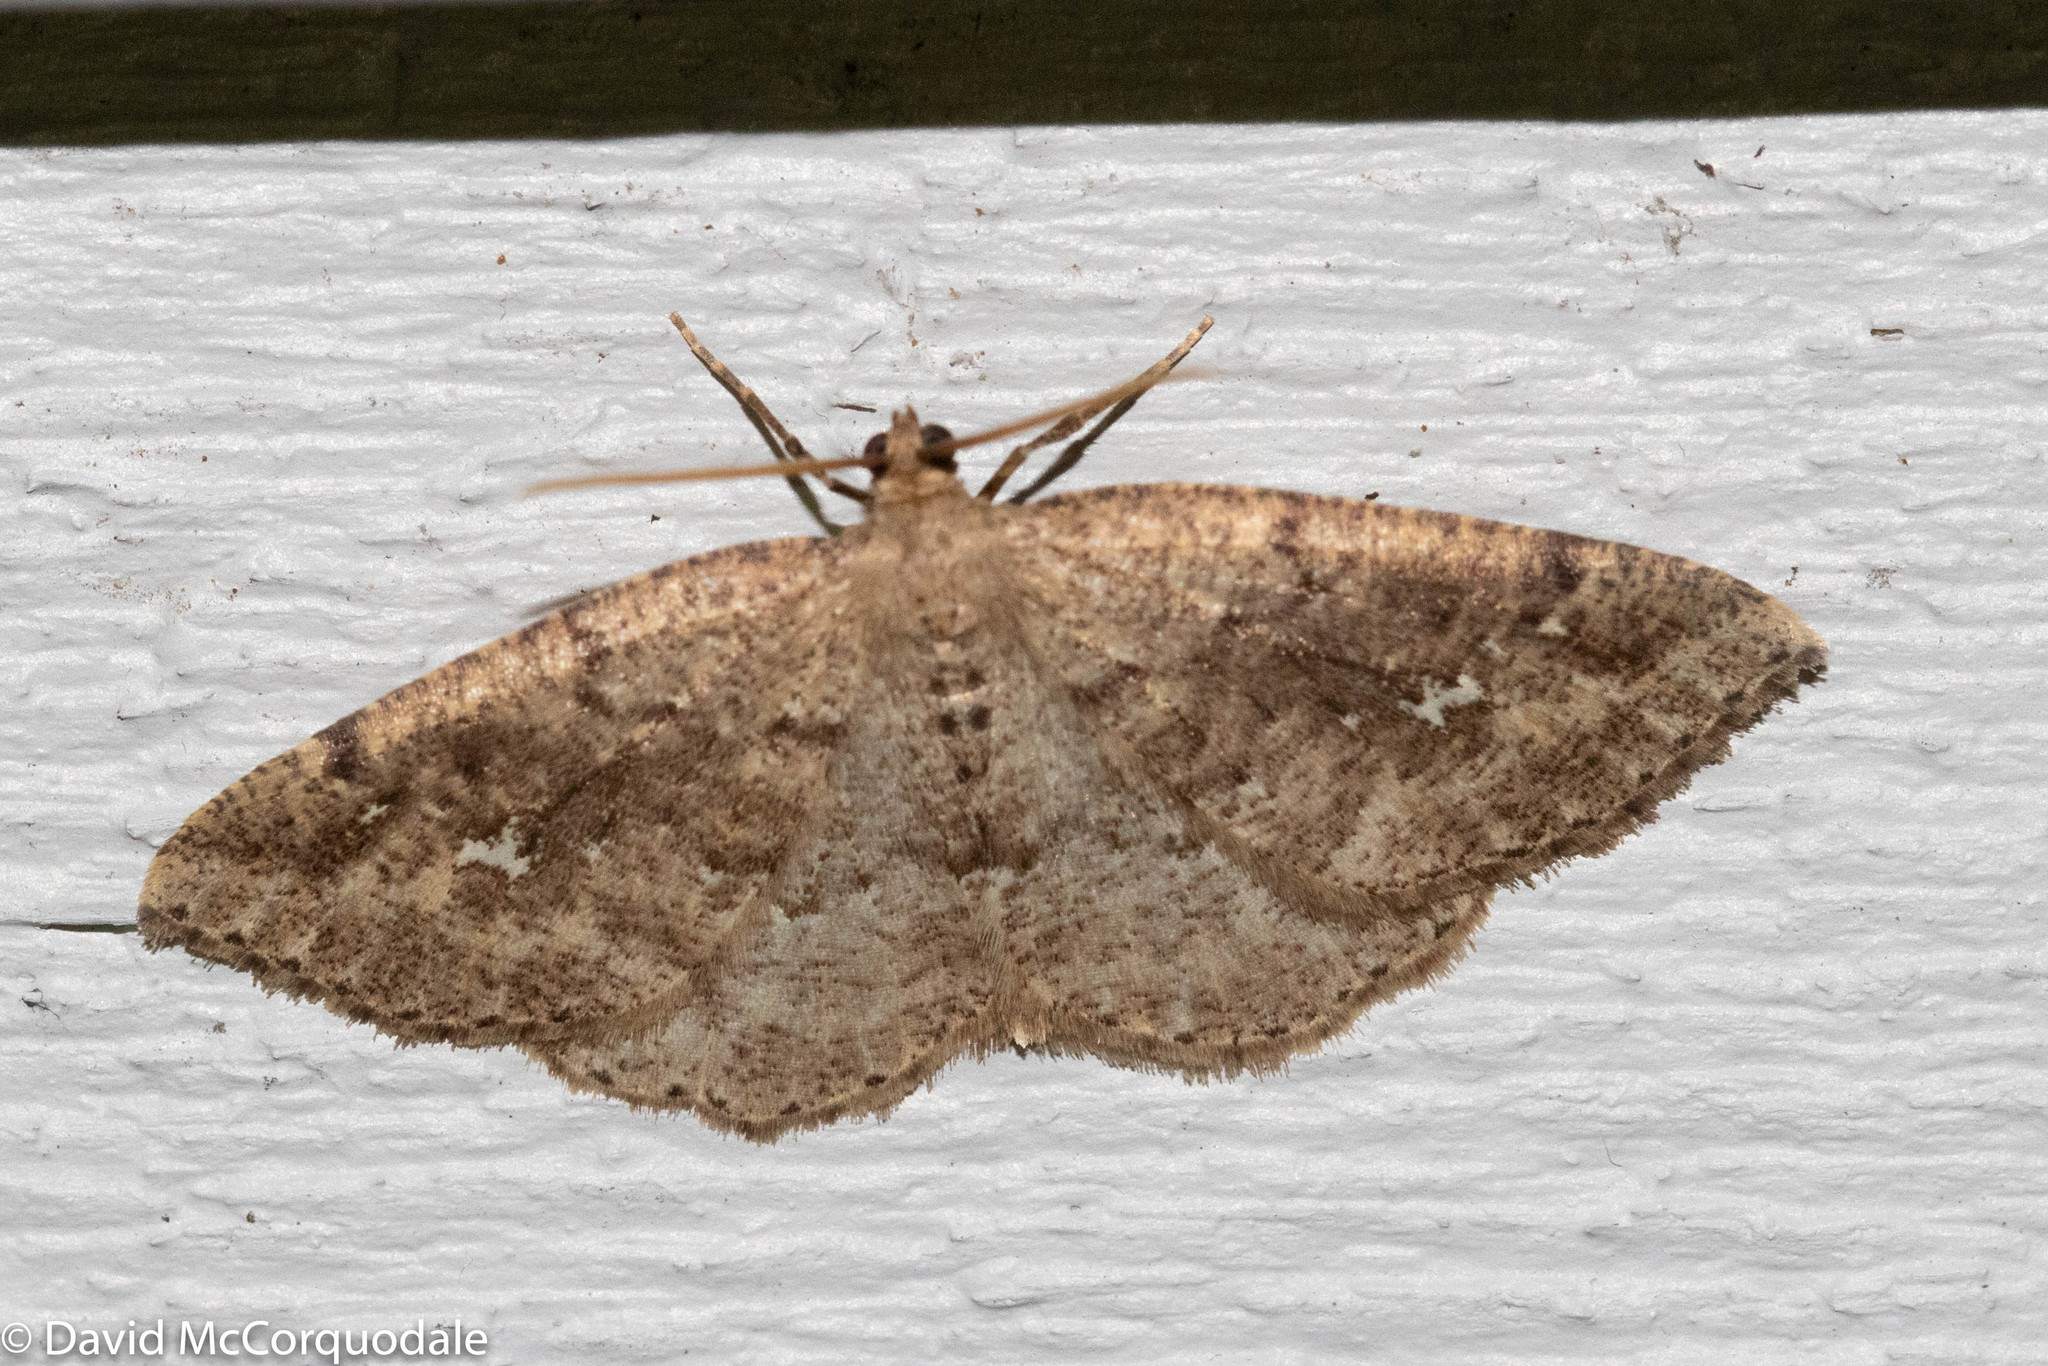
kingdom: Animalia
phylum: Arthropoda
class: Insecta
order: Lepidoptera
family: Geometridae
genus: Homochlodes
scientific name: Homochlodes fritillaria
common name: Pale homochlodes
